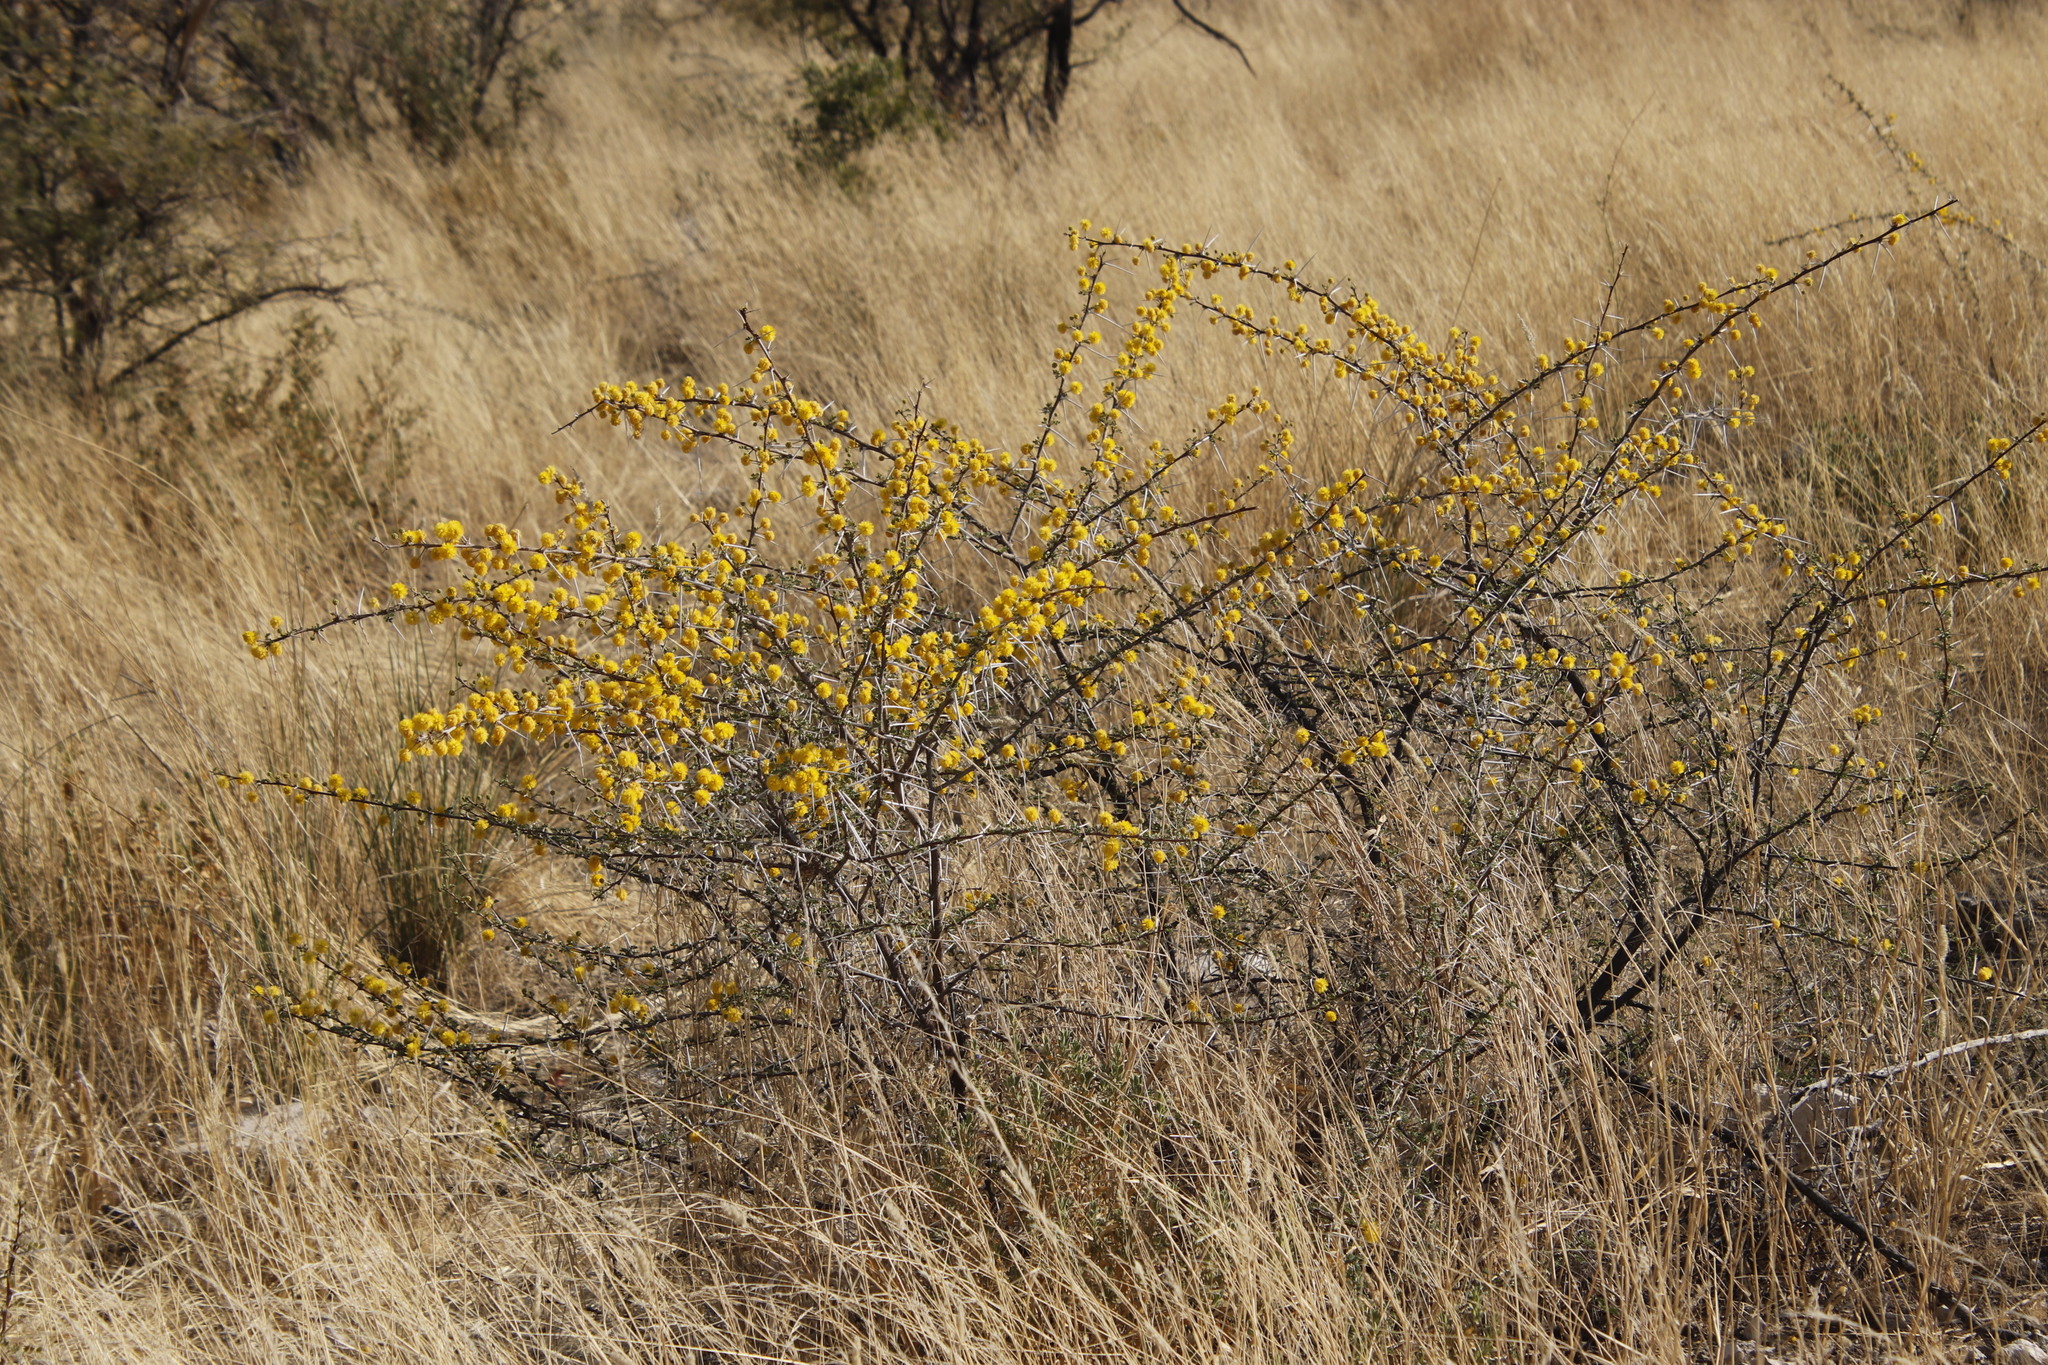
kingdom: Plantae
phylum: Tracheophyta
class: Magnoliopsida
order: Fabales
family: Fabaceae
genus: Vachellia
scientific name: Vachellia nebrownii
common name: Water acacia
